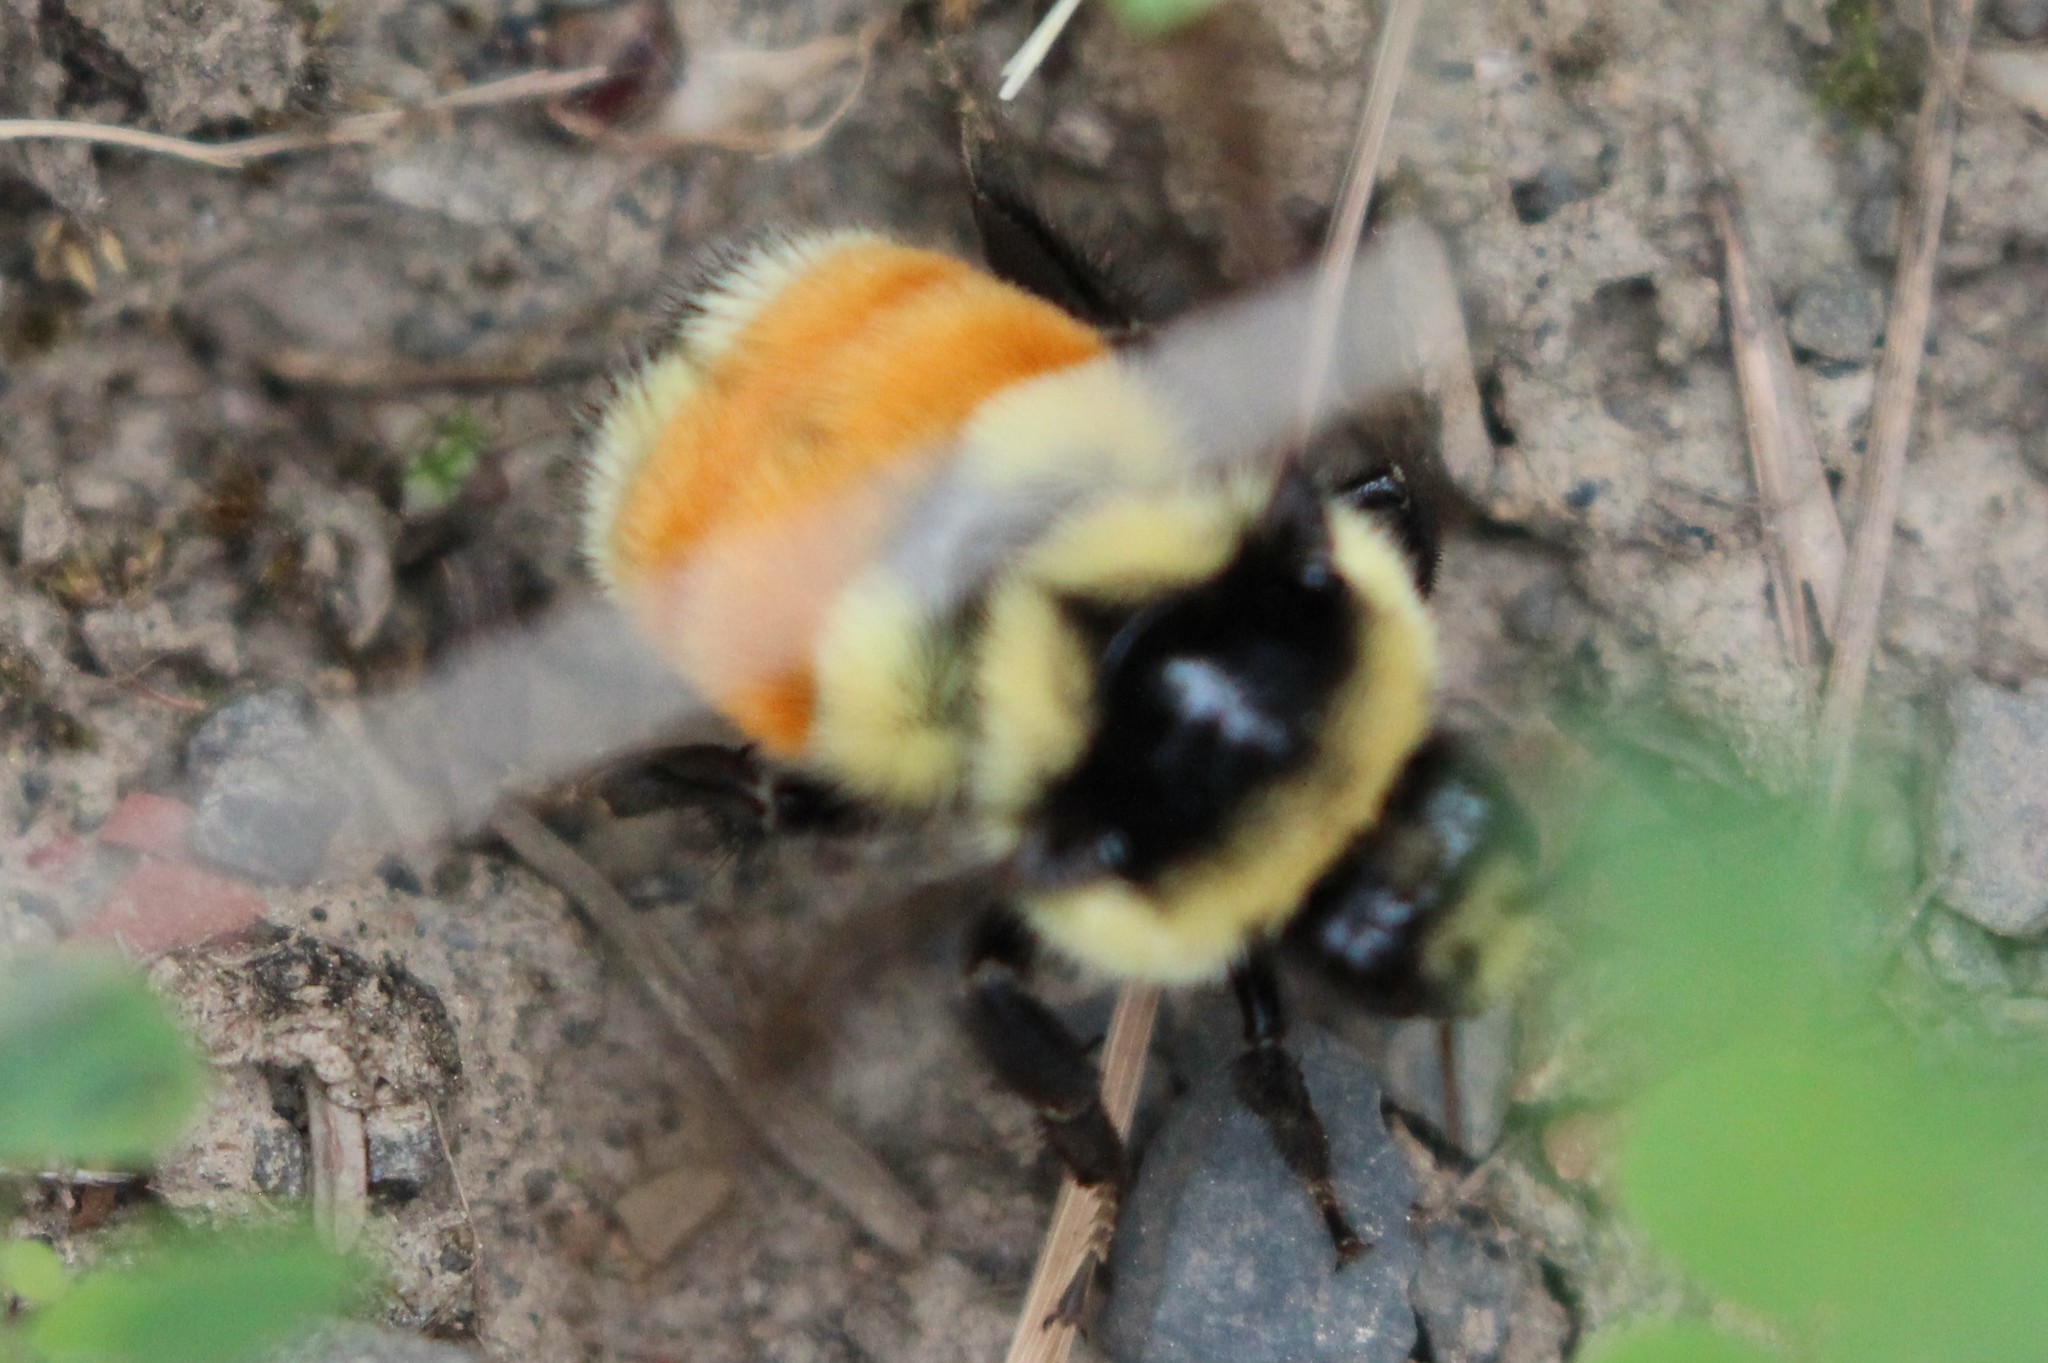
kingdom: Animalia
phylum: Arthropoda
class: Insecta
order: Hymenoptera
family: Apidae
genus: Bombus
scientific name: Bombus ternarius
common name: Tri-colored bumble bee
